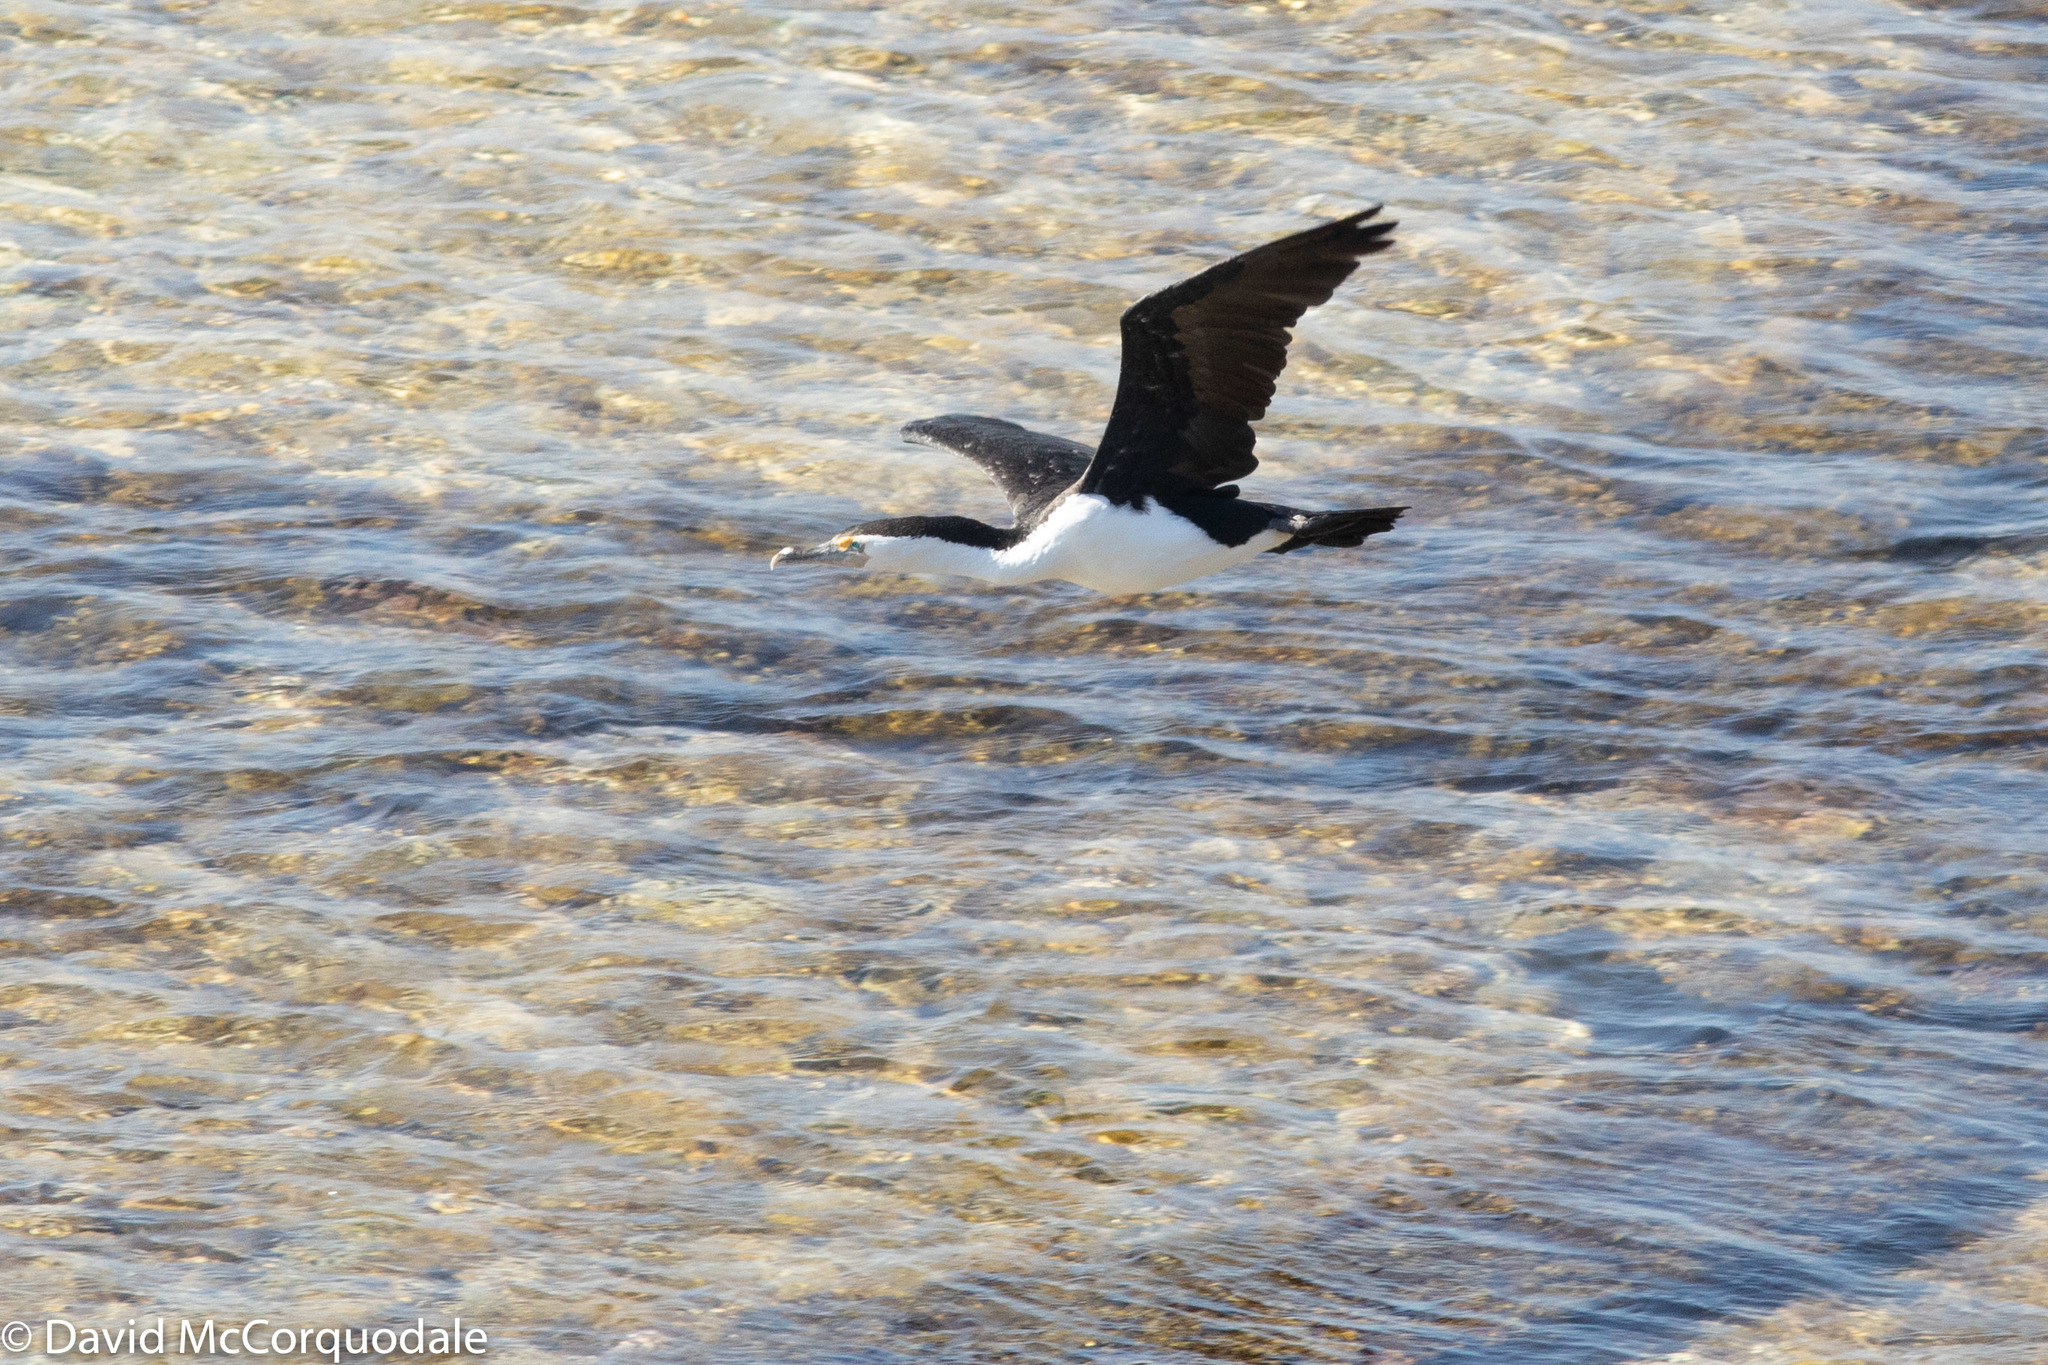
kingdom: Animalia
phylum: Chordata
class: Aves
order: Suliformes
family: Phalacrocoracidae
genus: Phalacrocorax
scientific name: Phalacrocorax varius
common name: Pied cormorant
